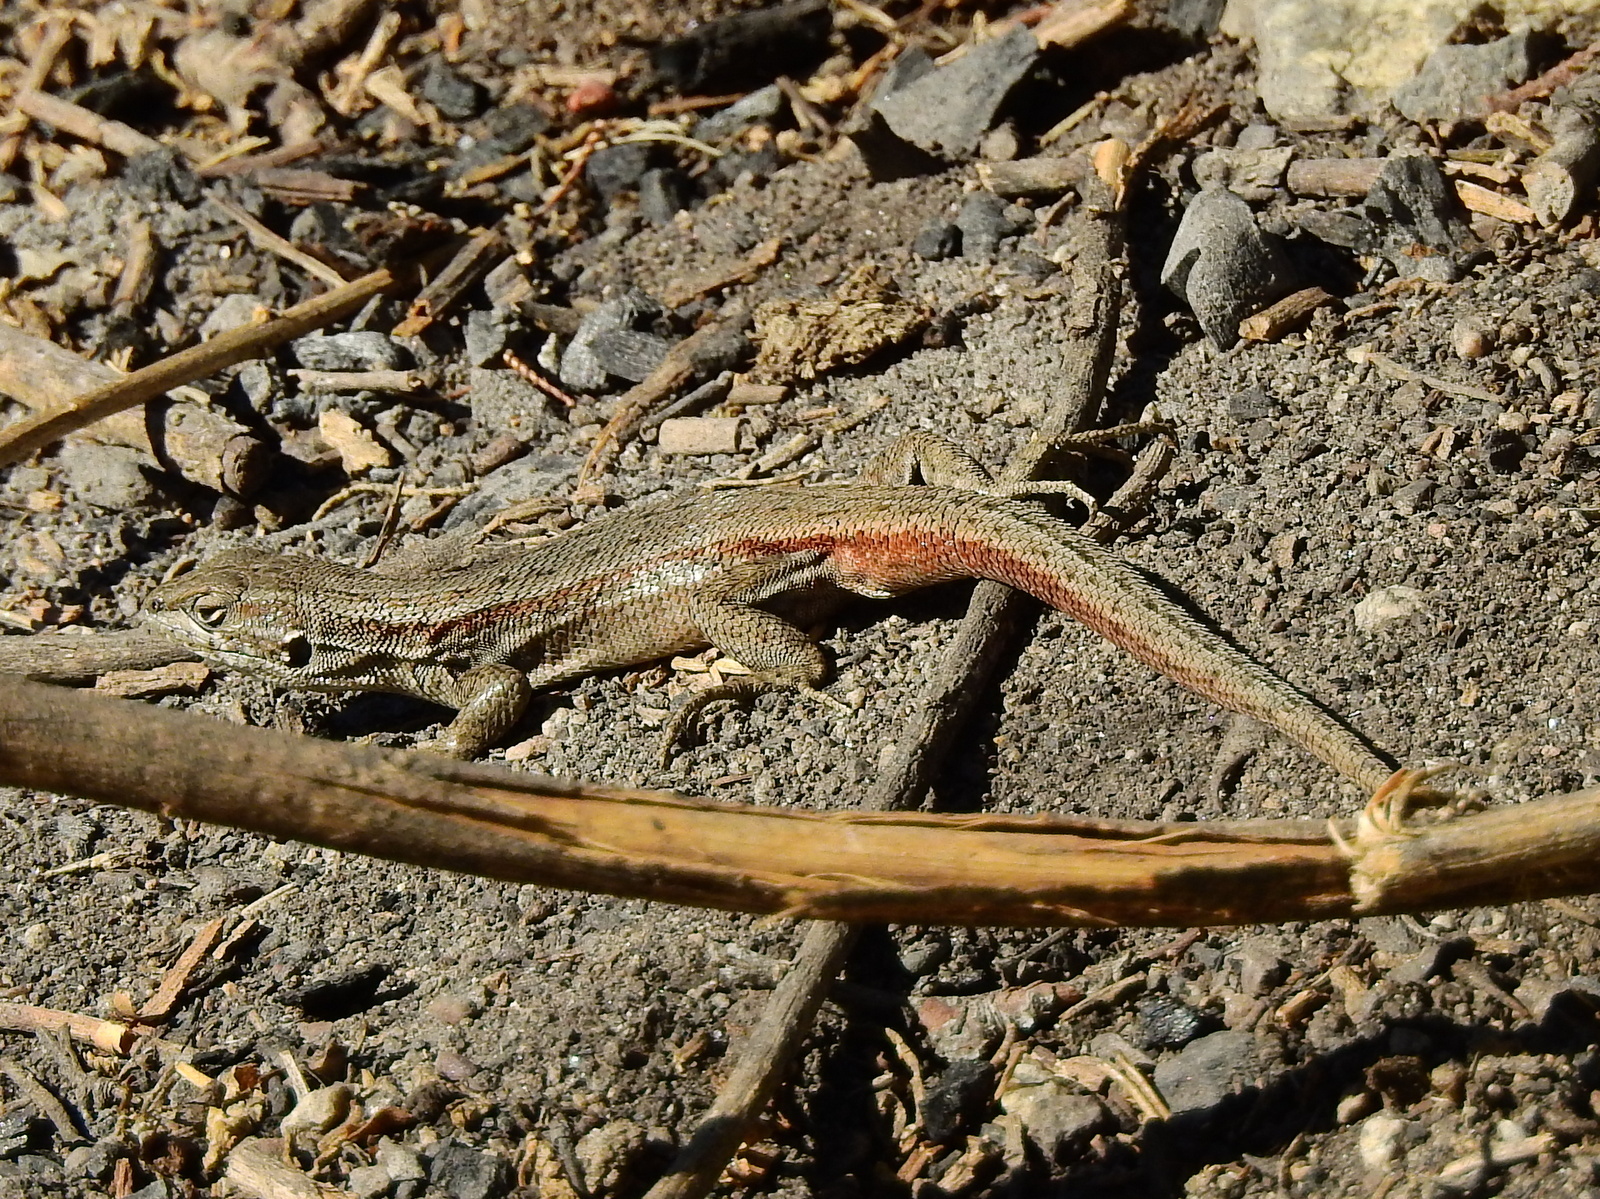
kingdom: Animalia
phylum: Chordata
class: Squamata
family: Liolaemidae
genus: Liolaemus
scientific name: Liolaemus yalguaraz
